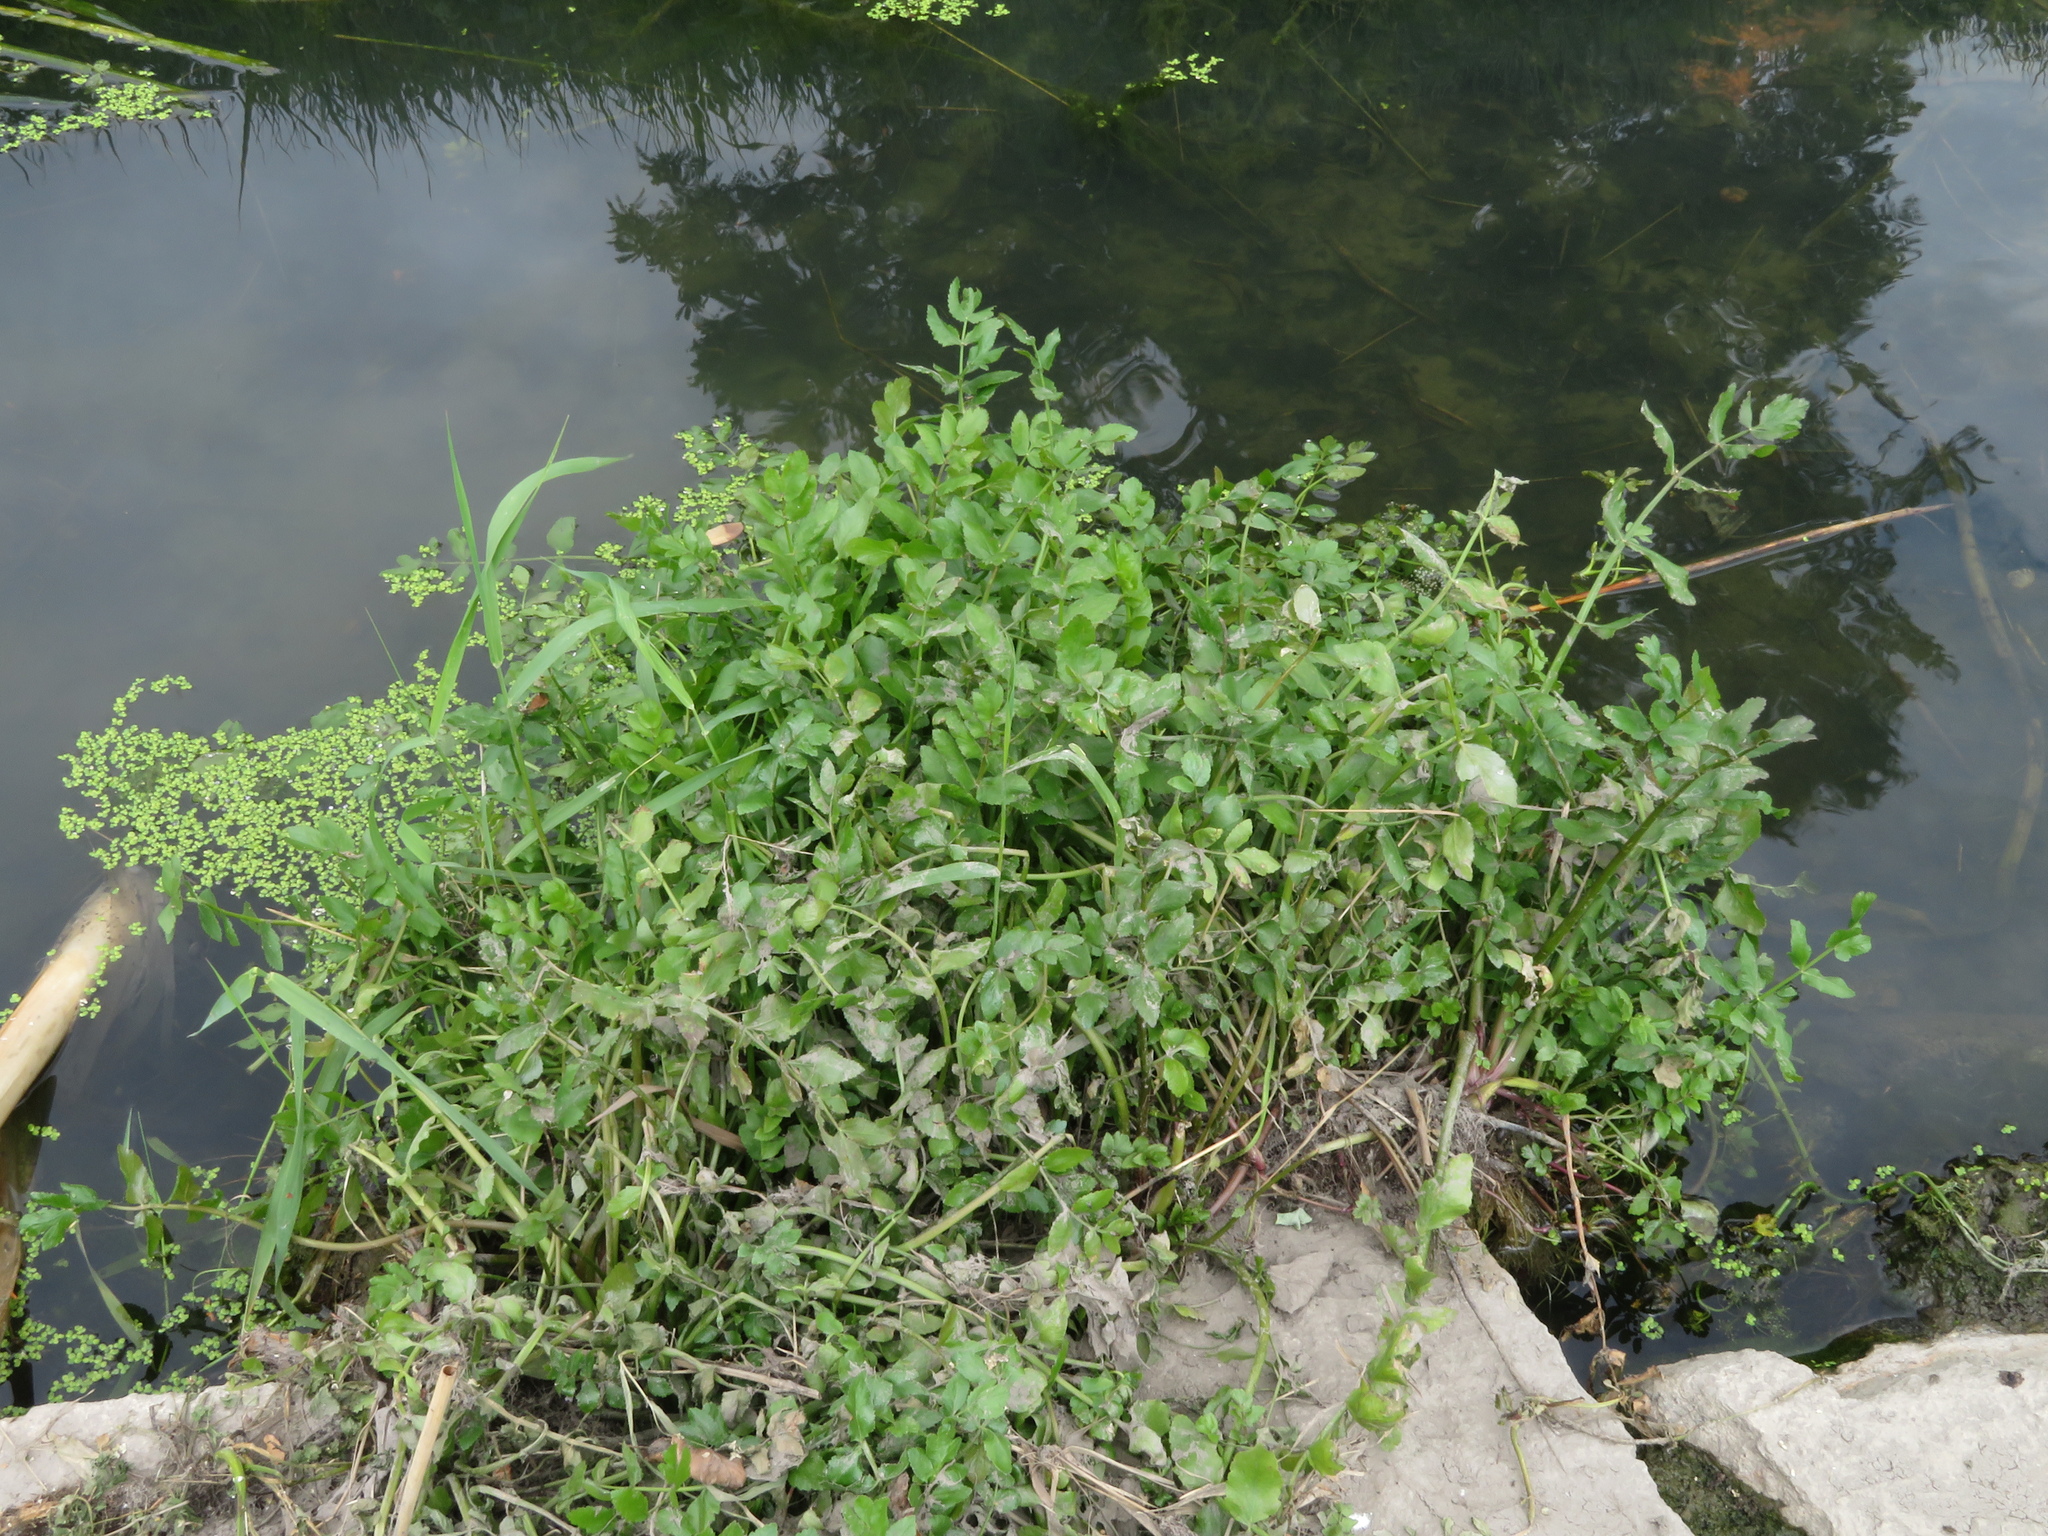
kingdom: Plantae
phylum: Tracheophyta
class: Magnoliopsida
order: Apiales
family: Apiaceae
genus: Berula
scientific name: Berula erecta
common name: Lesser water-parsnip
